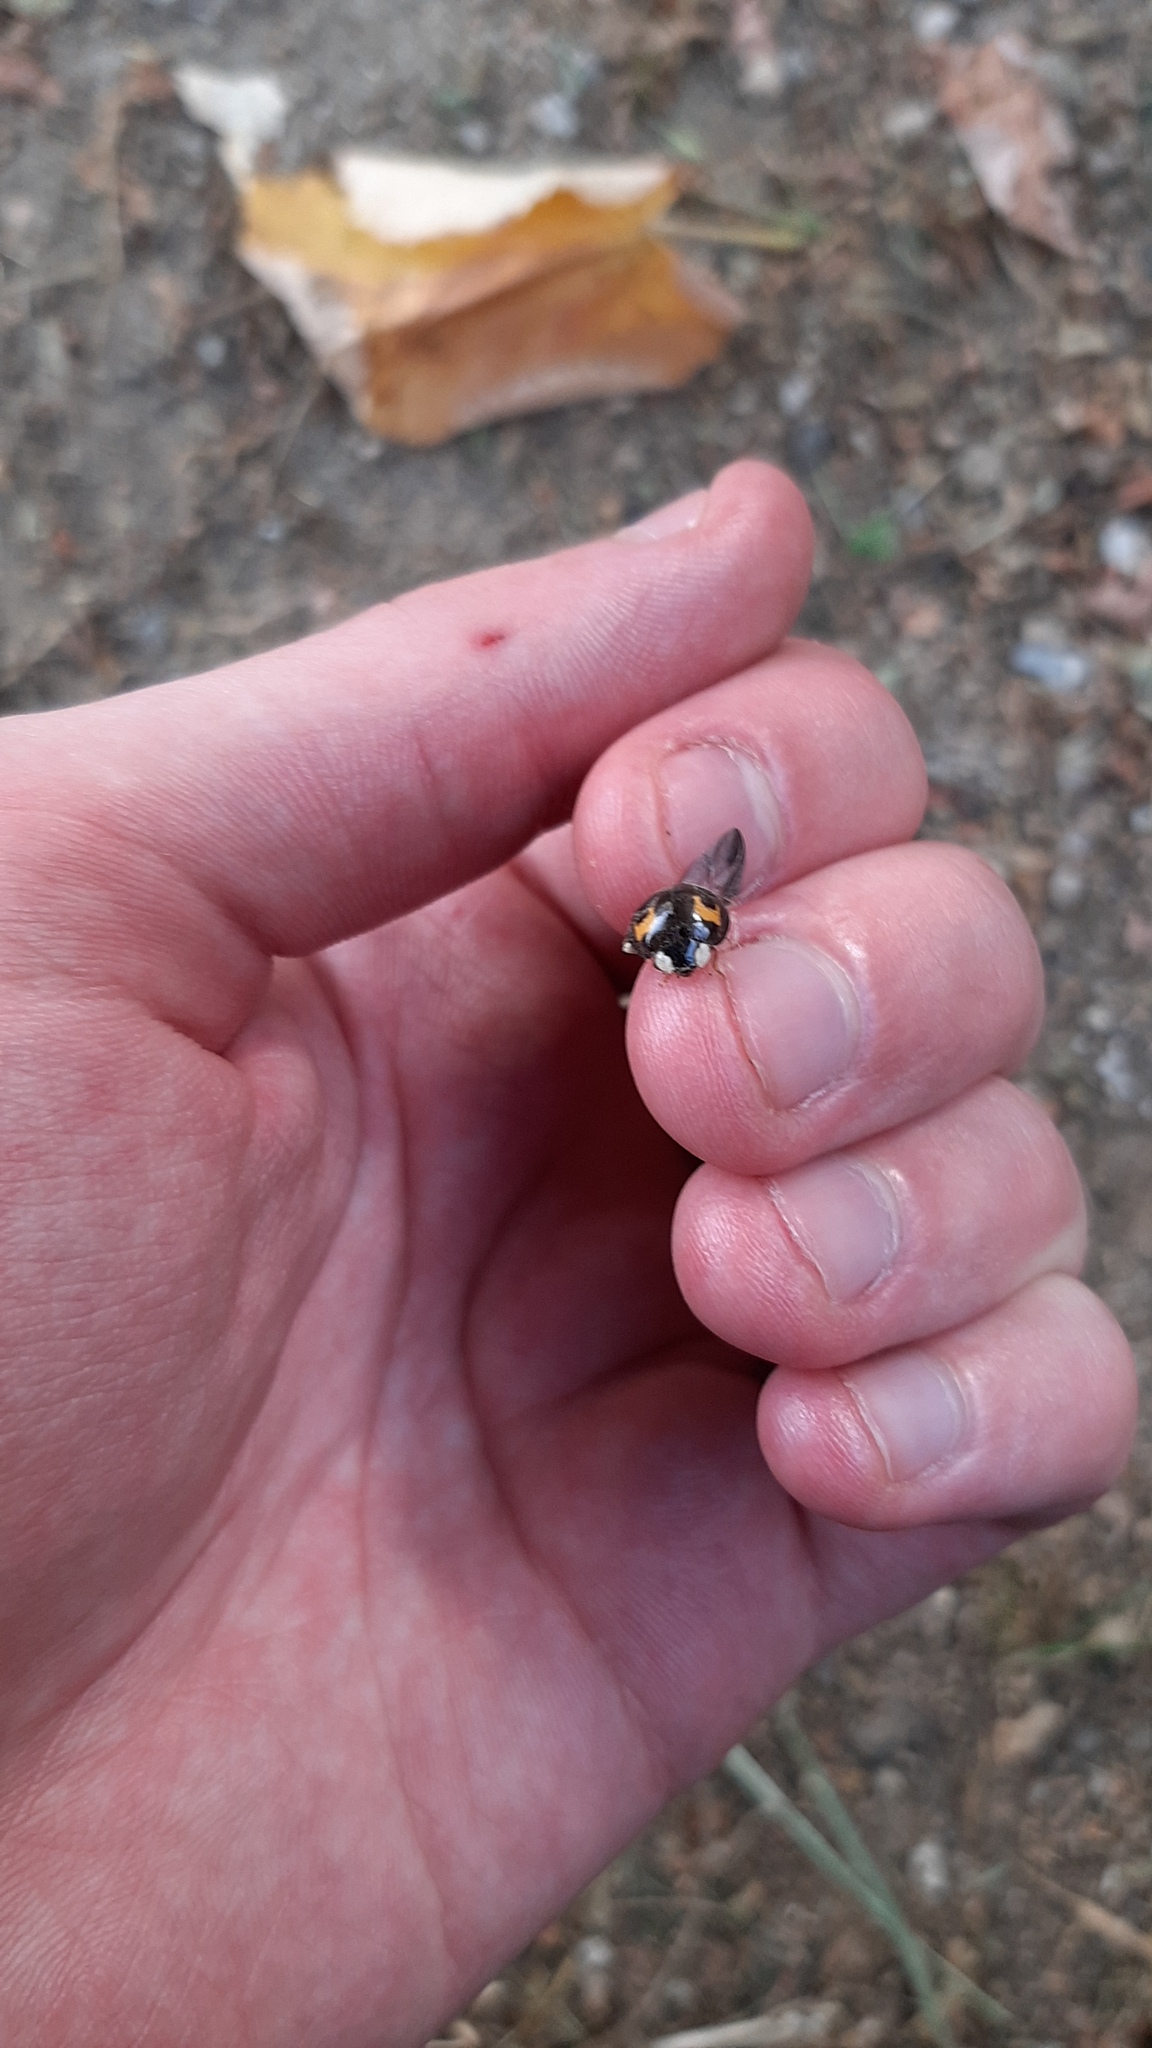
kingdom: Animalia
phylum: Arthropoda
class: Insecta
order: Coleoptera
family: Coccinellidae
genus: Harmonia
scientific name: Harmonia axyridis
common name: Harlequin ladybird
